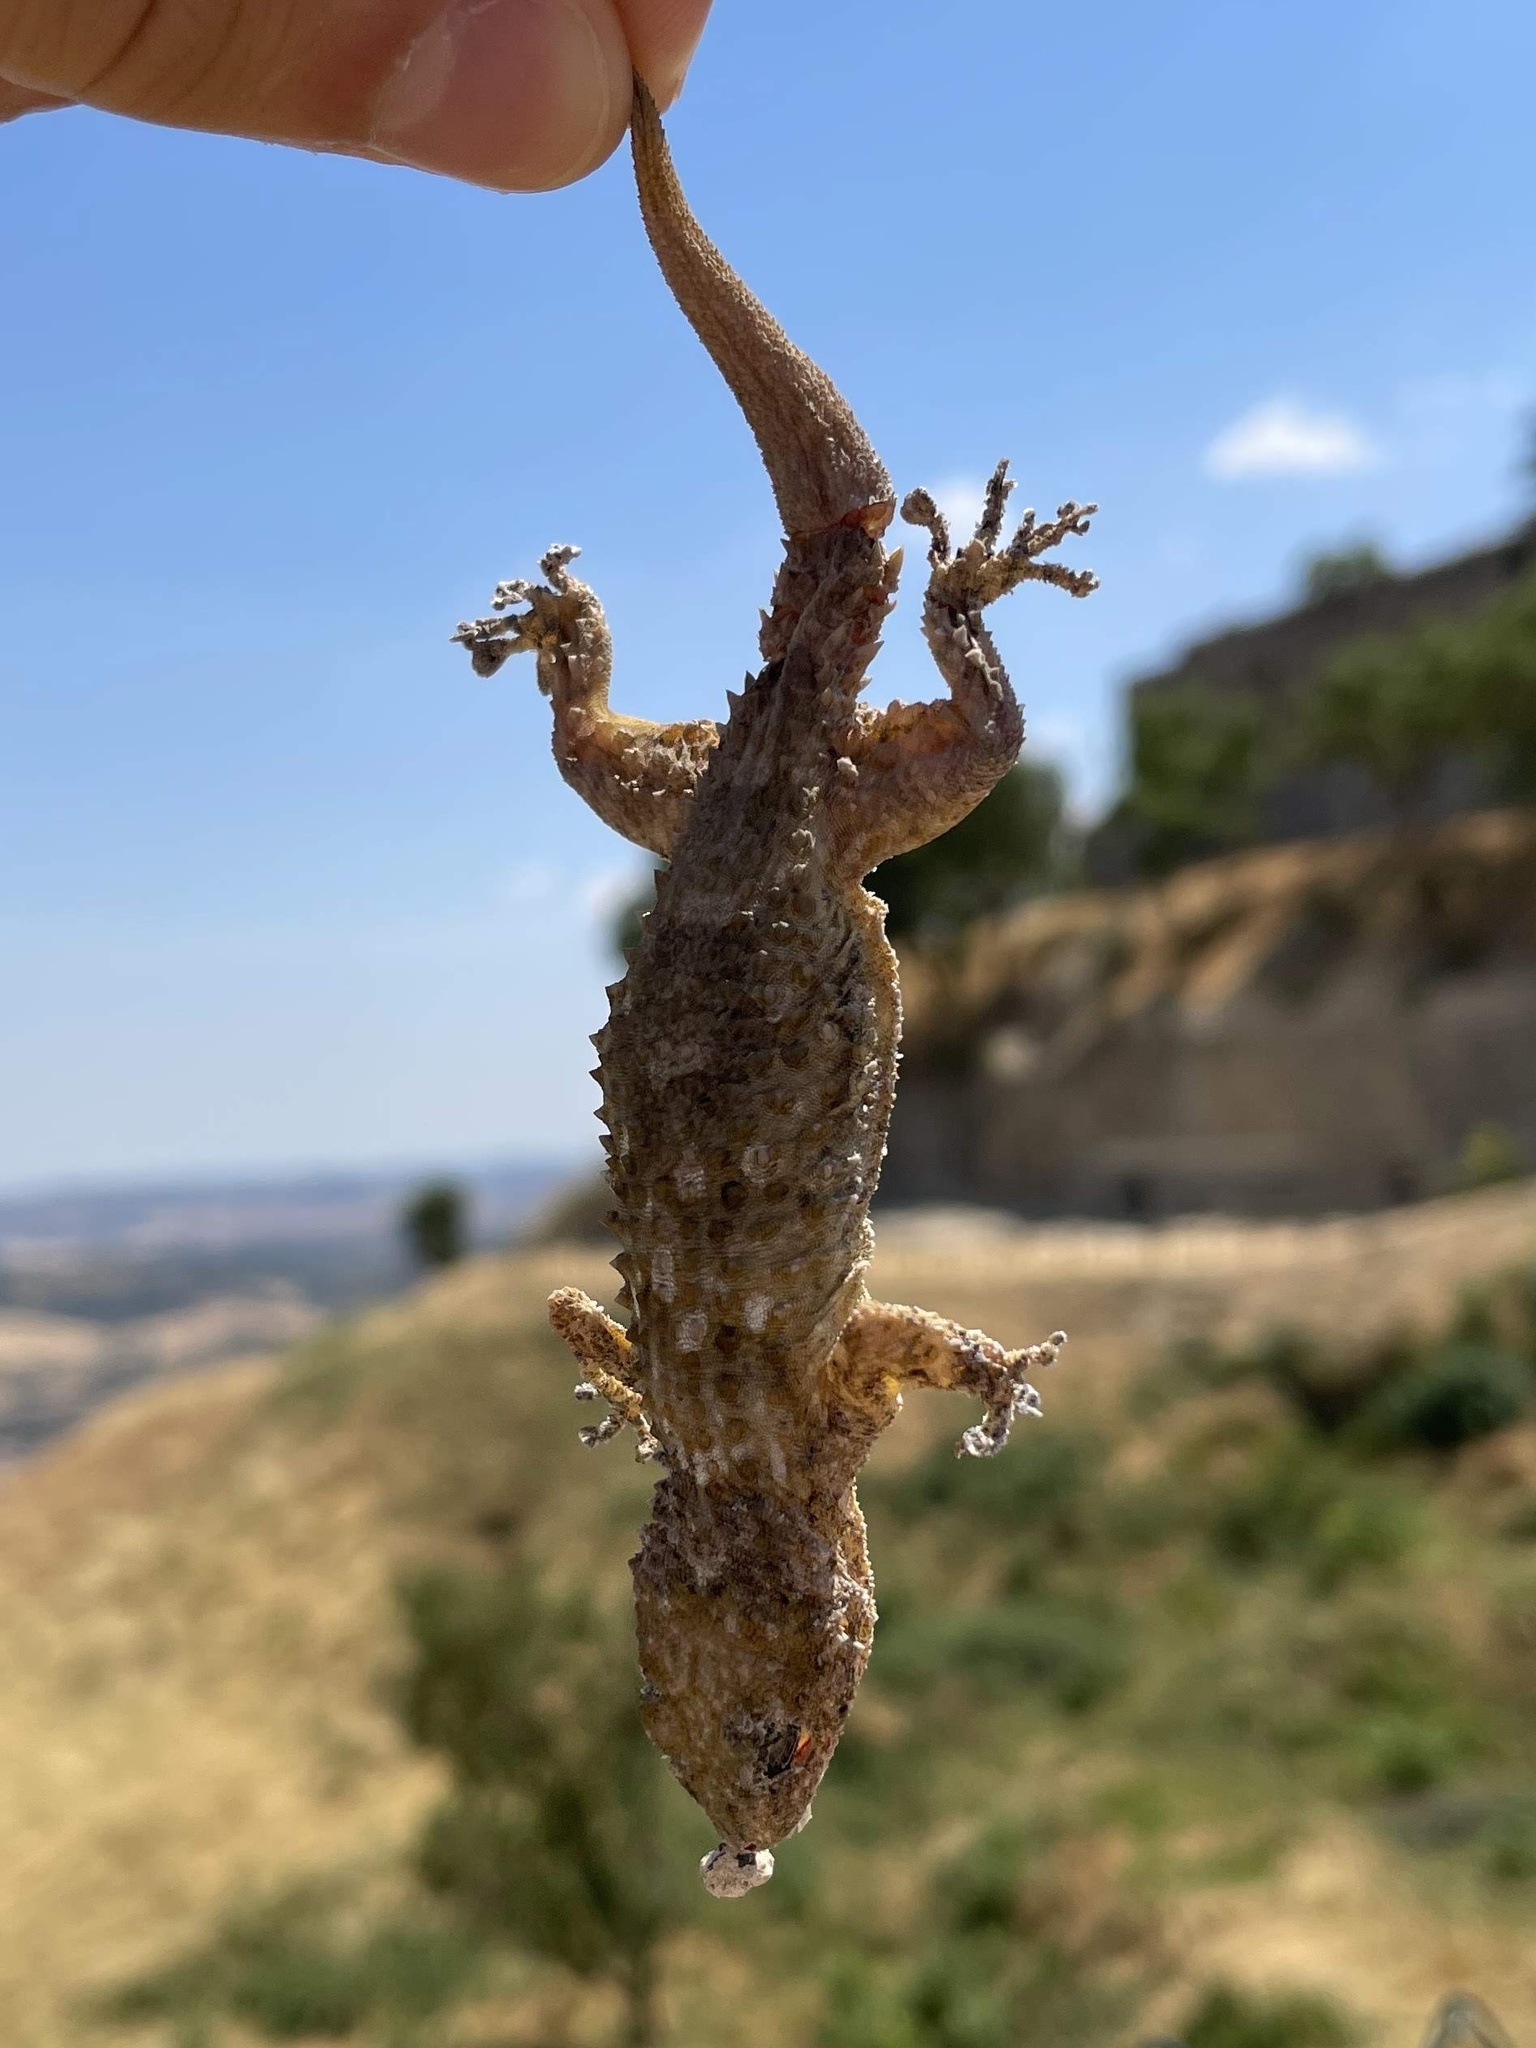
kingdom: Animalia
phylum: Chordata
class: Squamata
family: Phyllodactylidae
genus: Tarentola
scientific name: Tarentola mauritanica
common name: Moorish gecko
